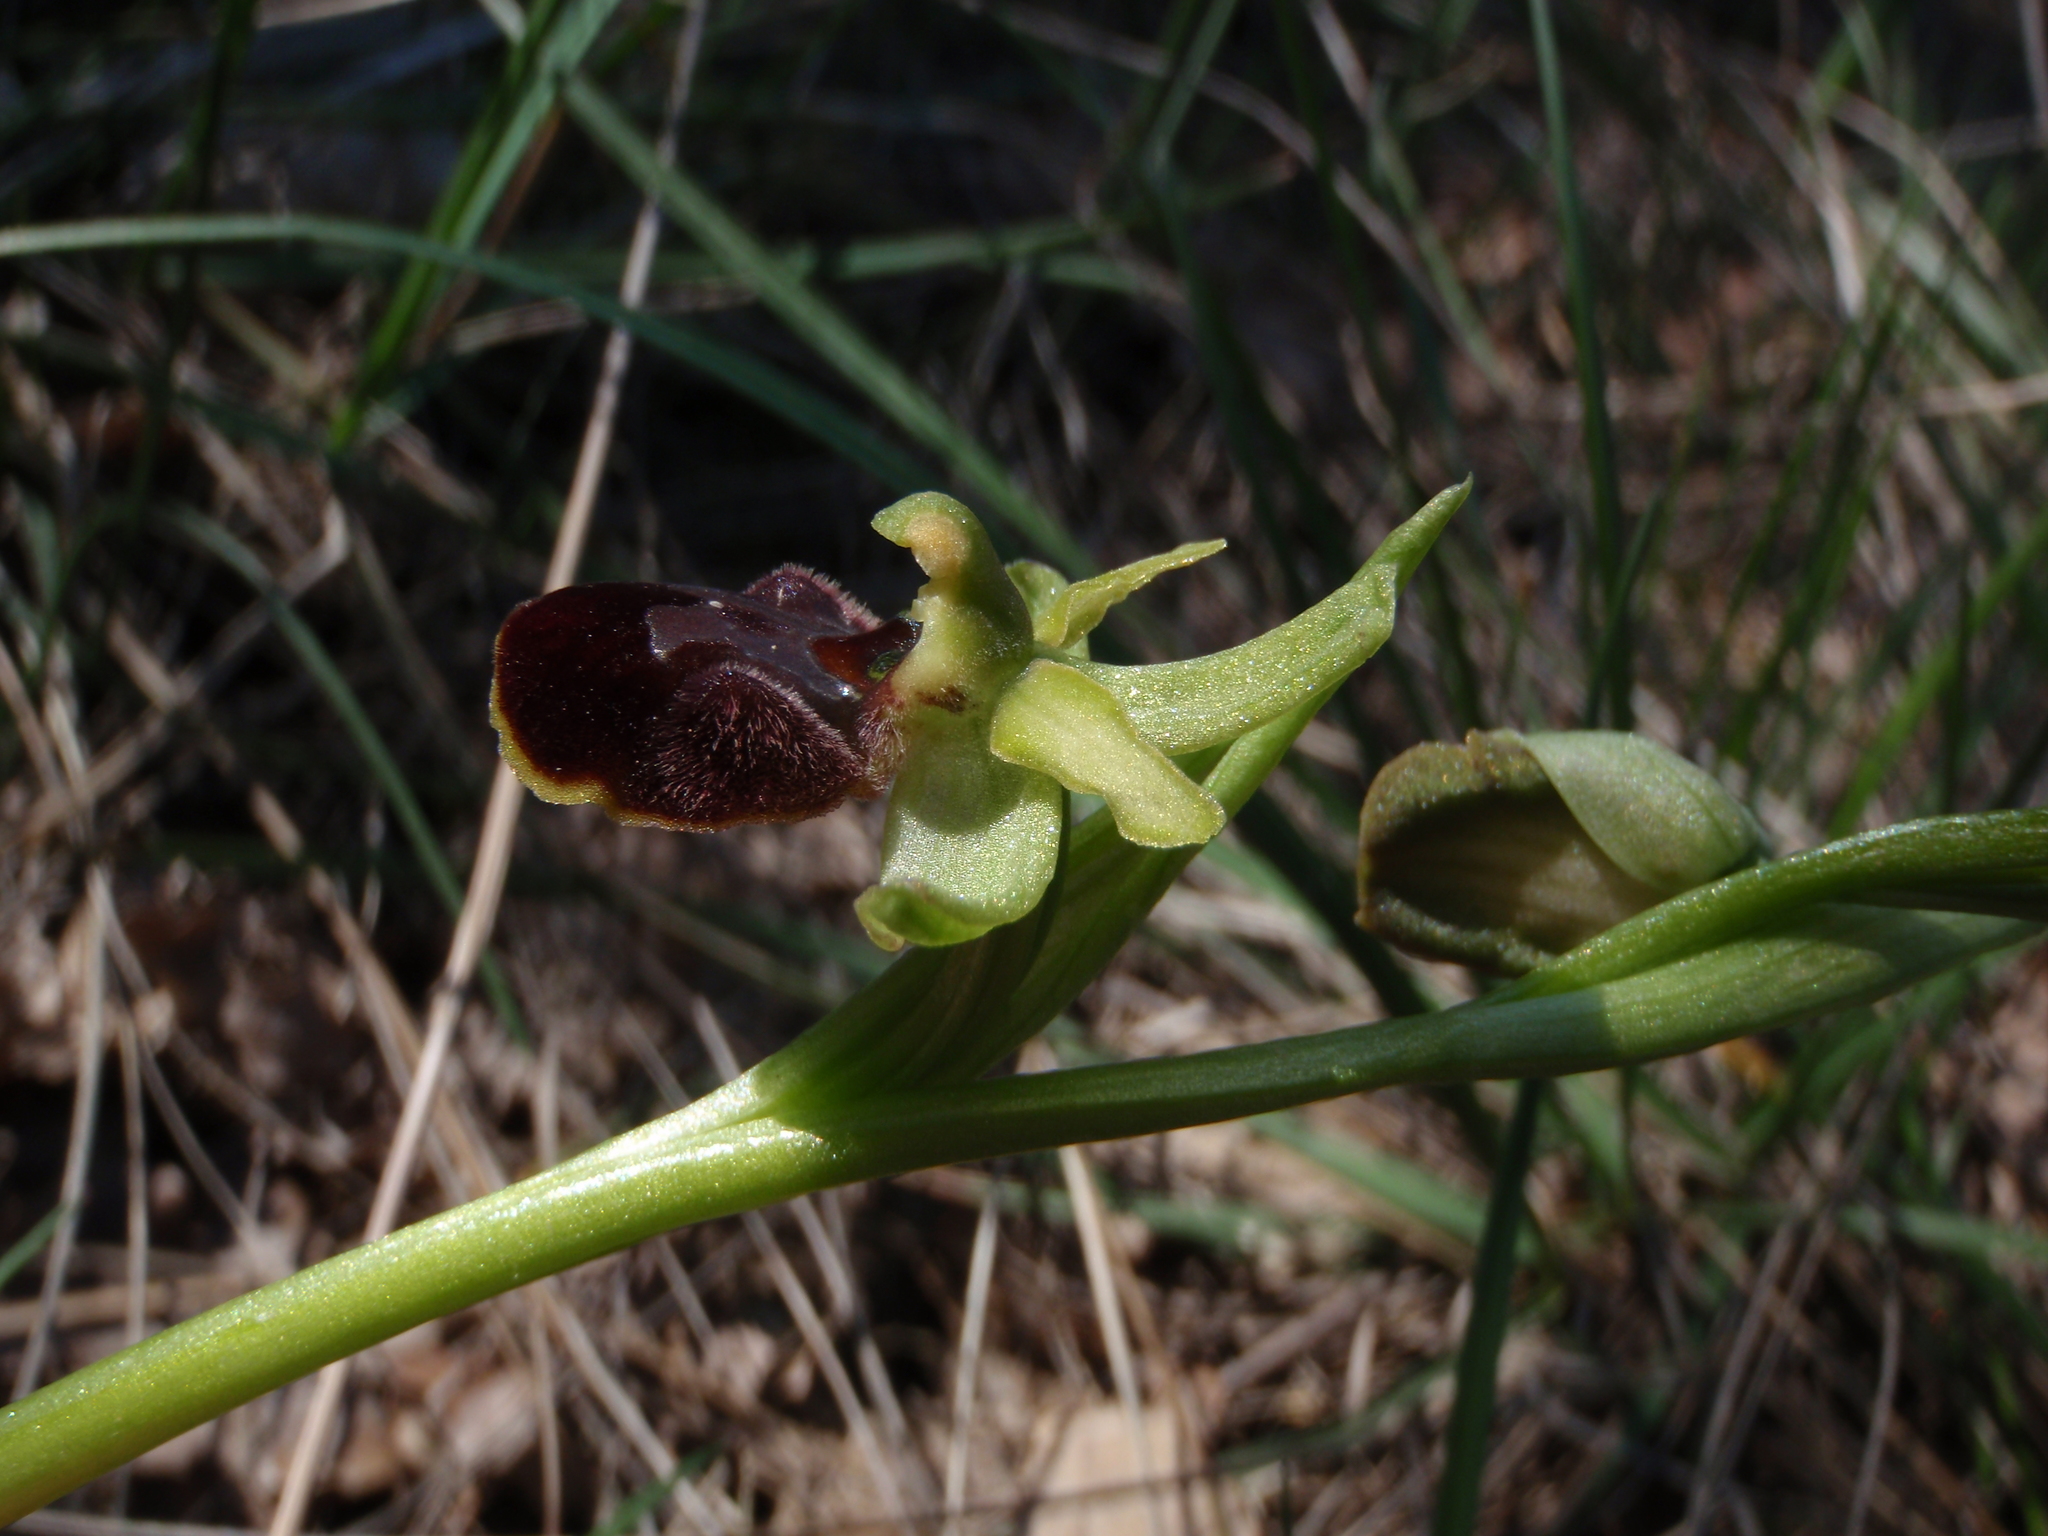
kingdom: Plantae
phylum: Tracheophyta
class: Liliopsida
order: Asparagales
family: Orchidaceae
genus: Ophrys
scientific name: Ophrys sphegodes
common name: Early spider-orchid
